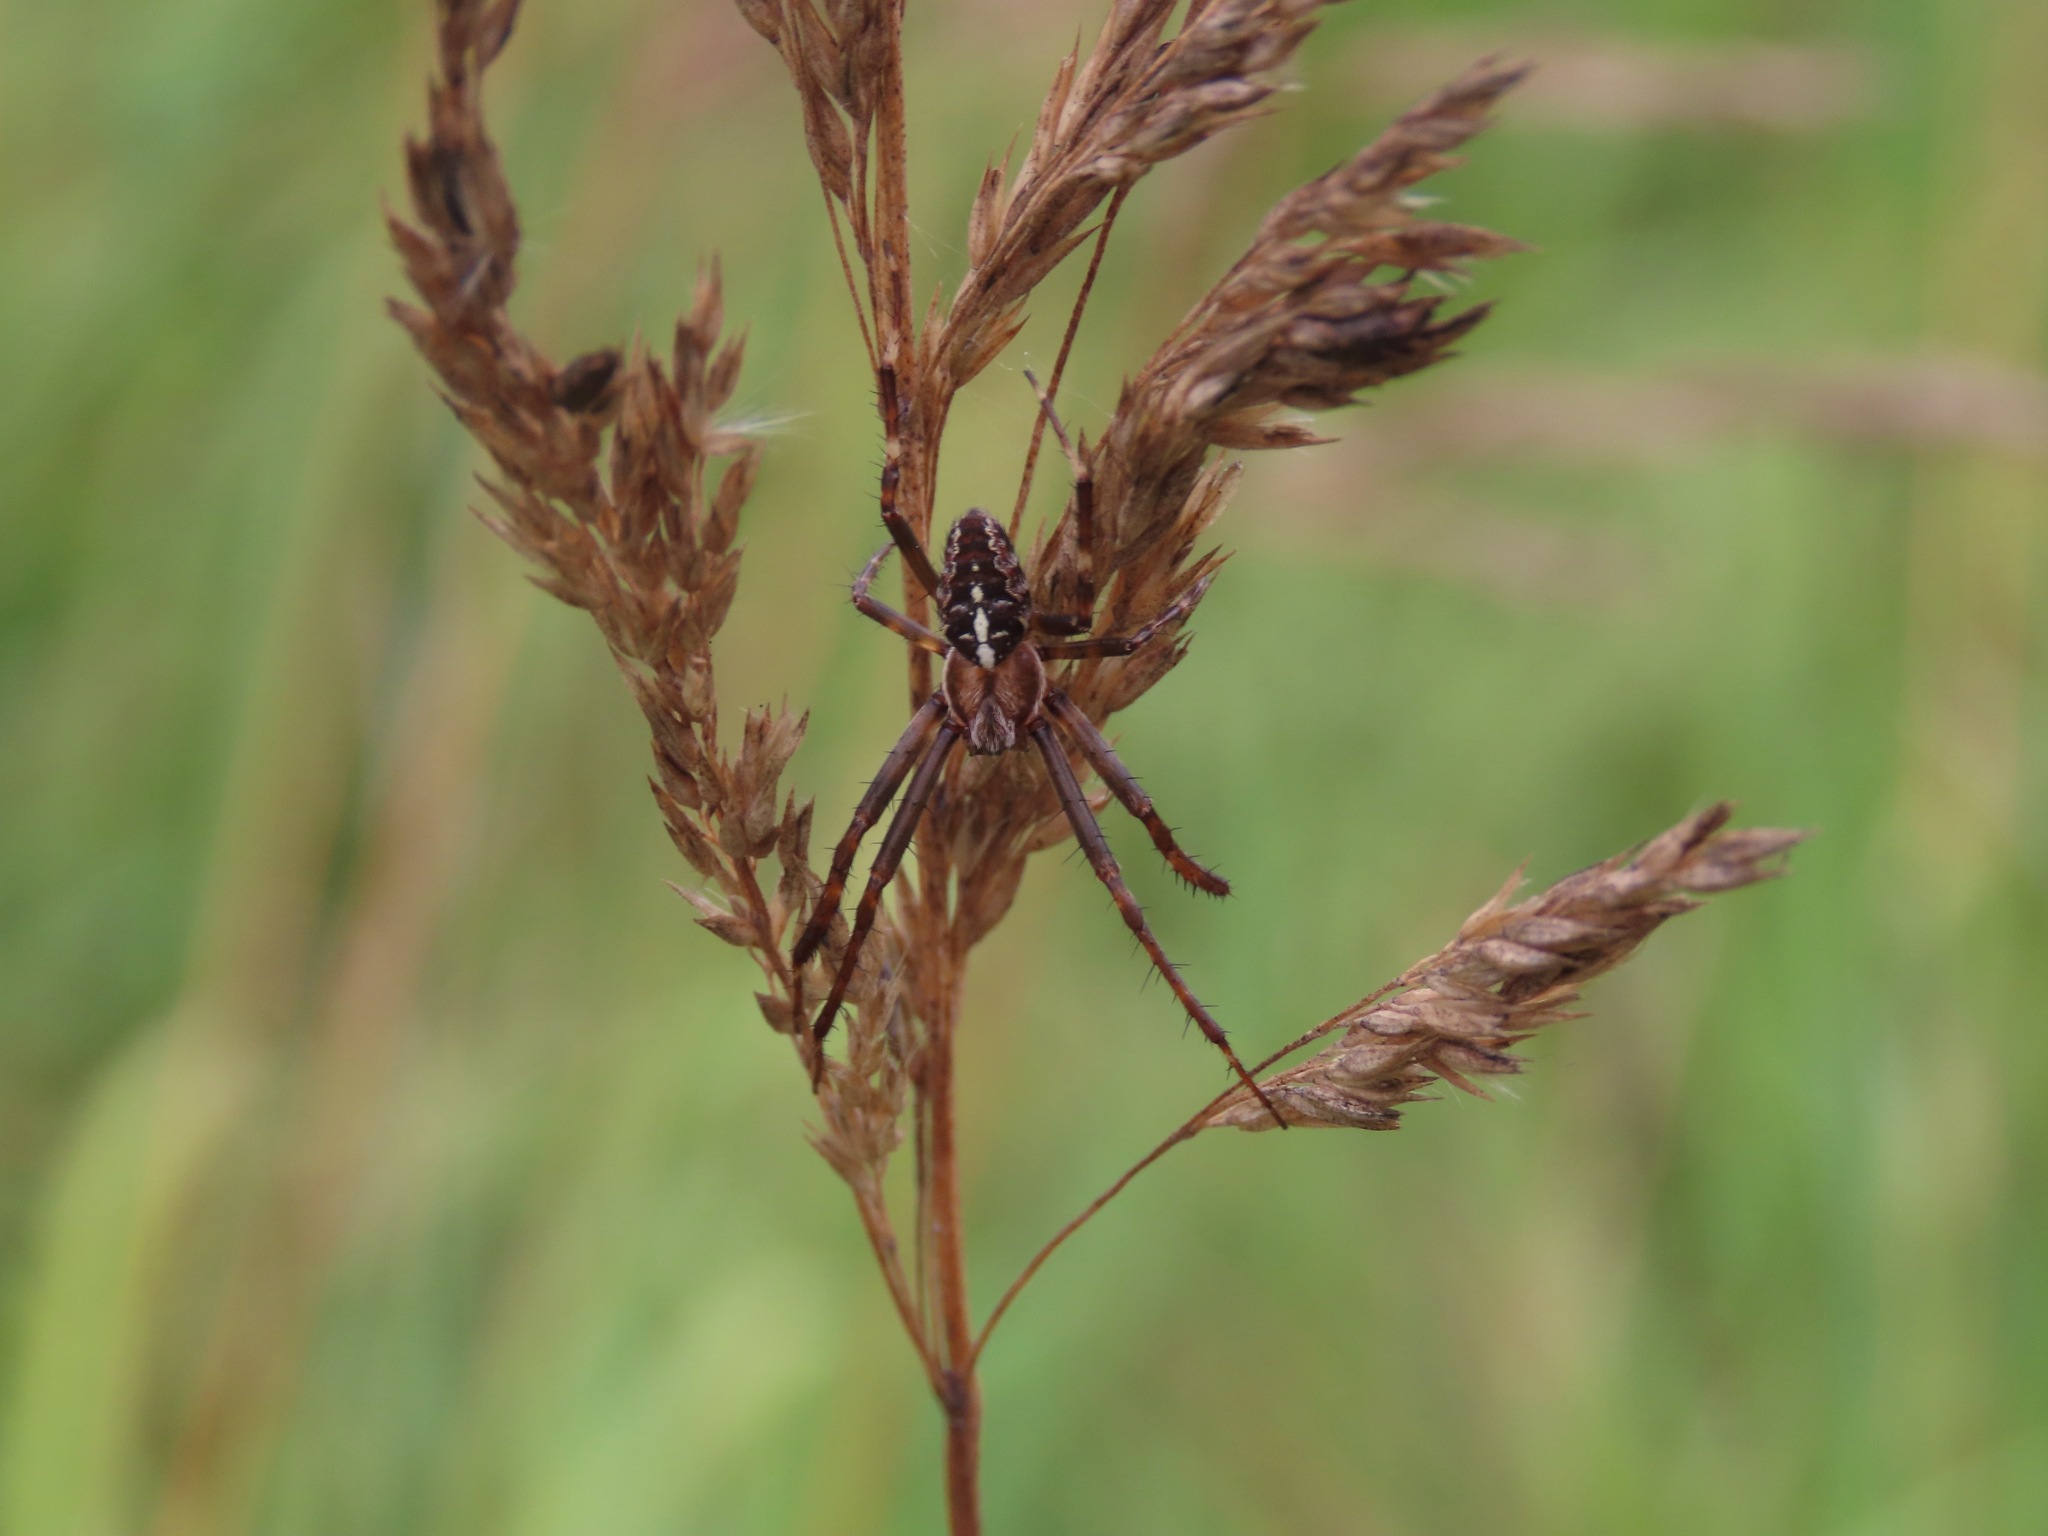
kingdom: Animalia
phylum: Arthropoda
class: Arachnida
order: Araneae
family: Araneidae
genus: Araneus
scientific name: Araneus diadematus
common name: Cross orbweaver
